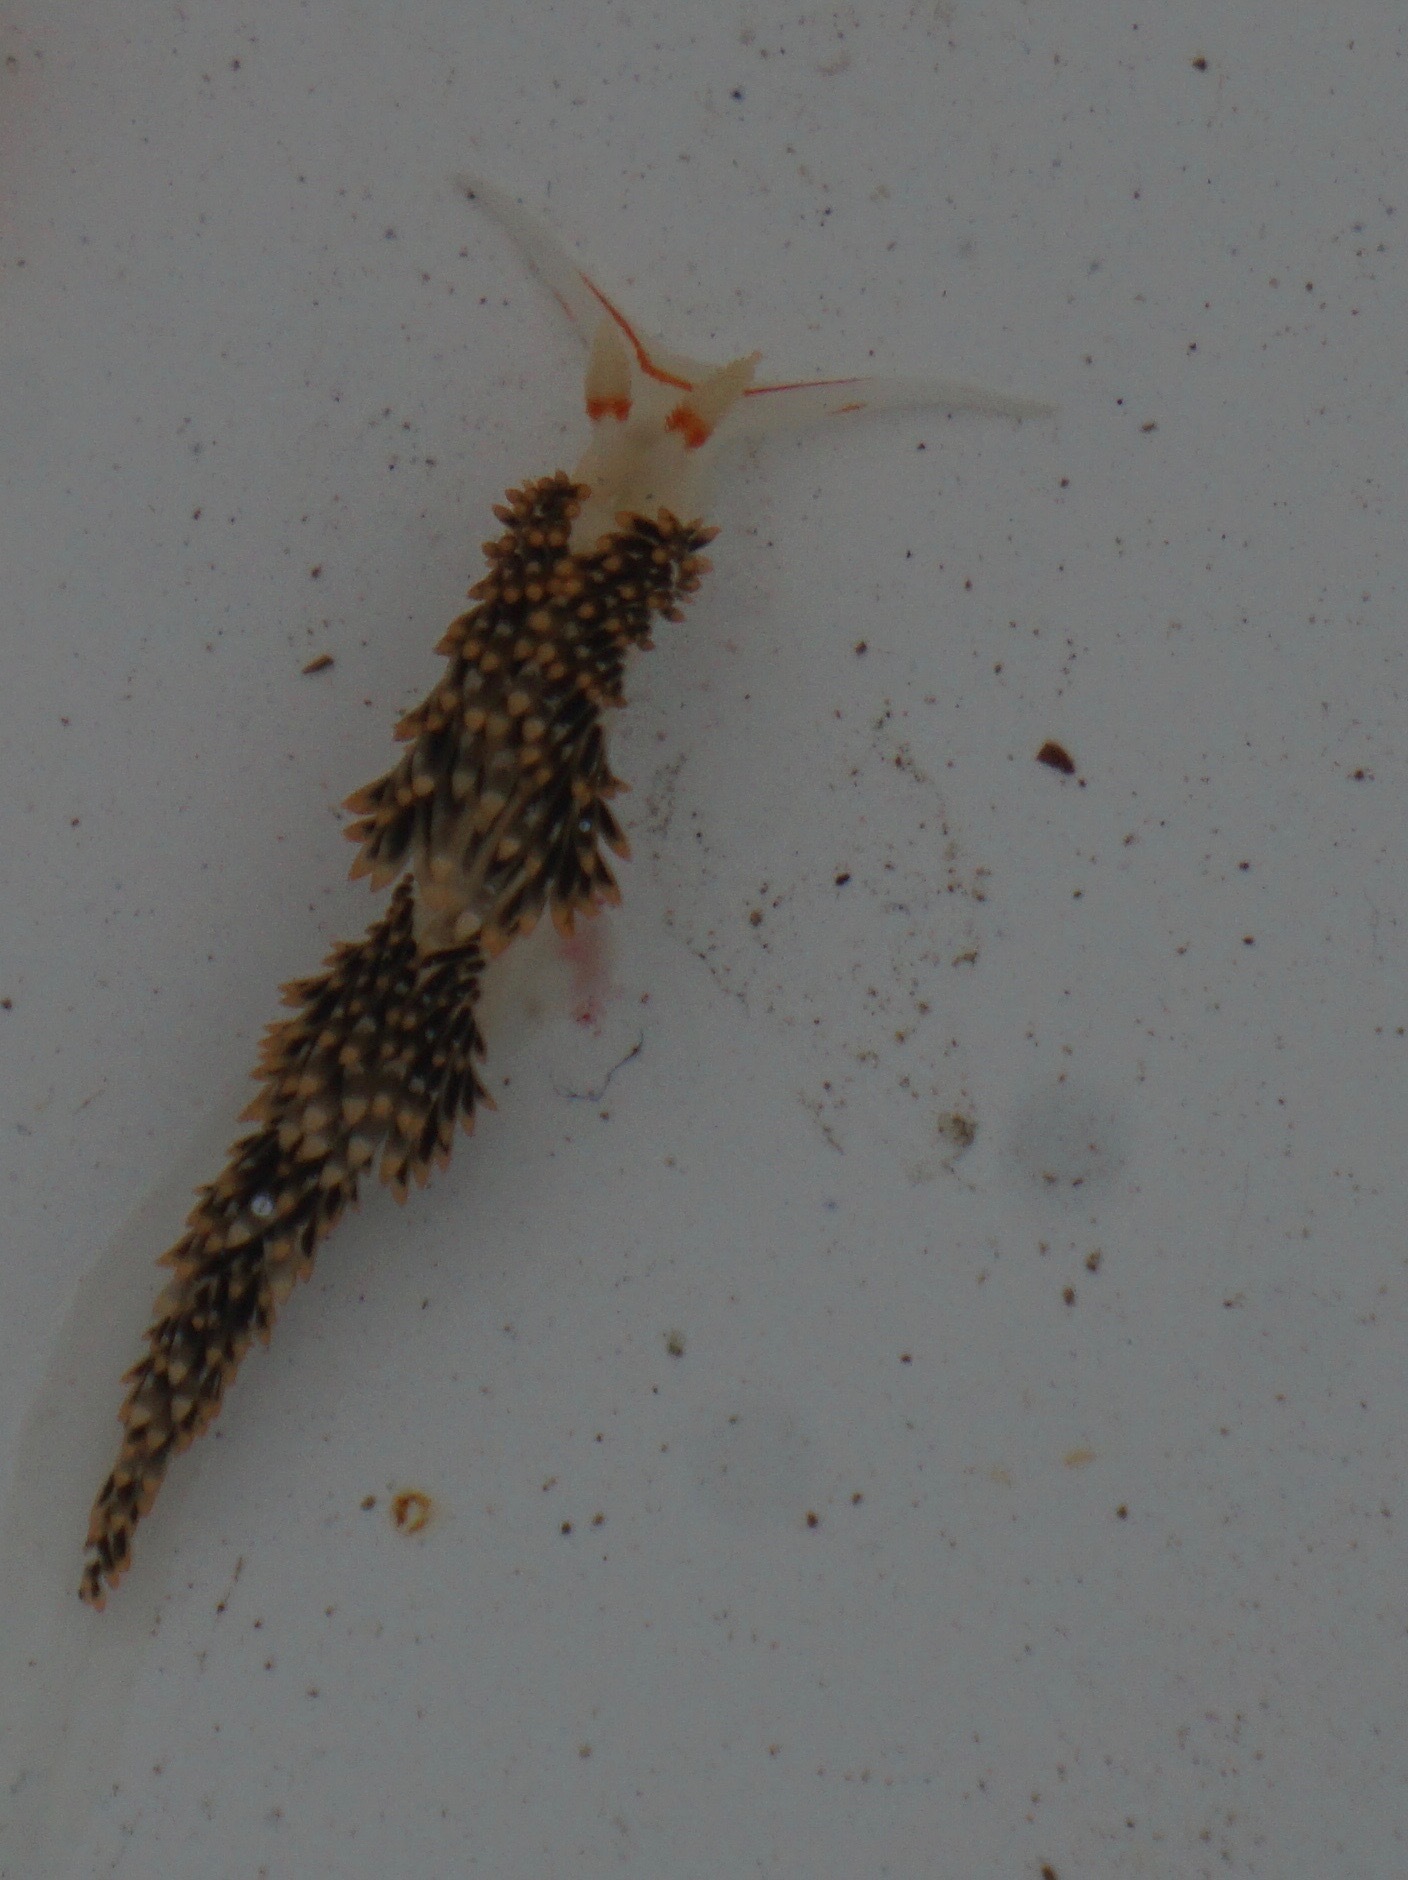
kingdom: Animalia
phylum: Mollusca
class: Gastropoda
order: Nudibranchia
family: Facelinidae
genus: Phidiana
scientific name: Phidiana hiltoni
